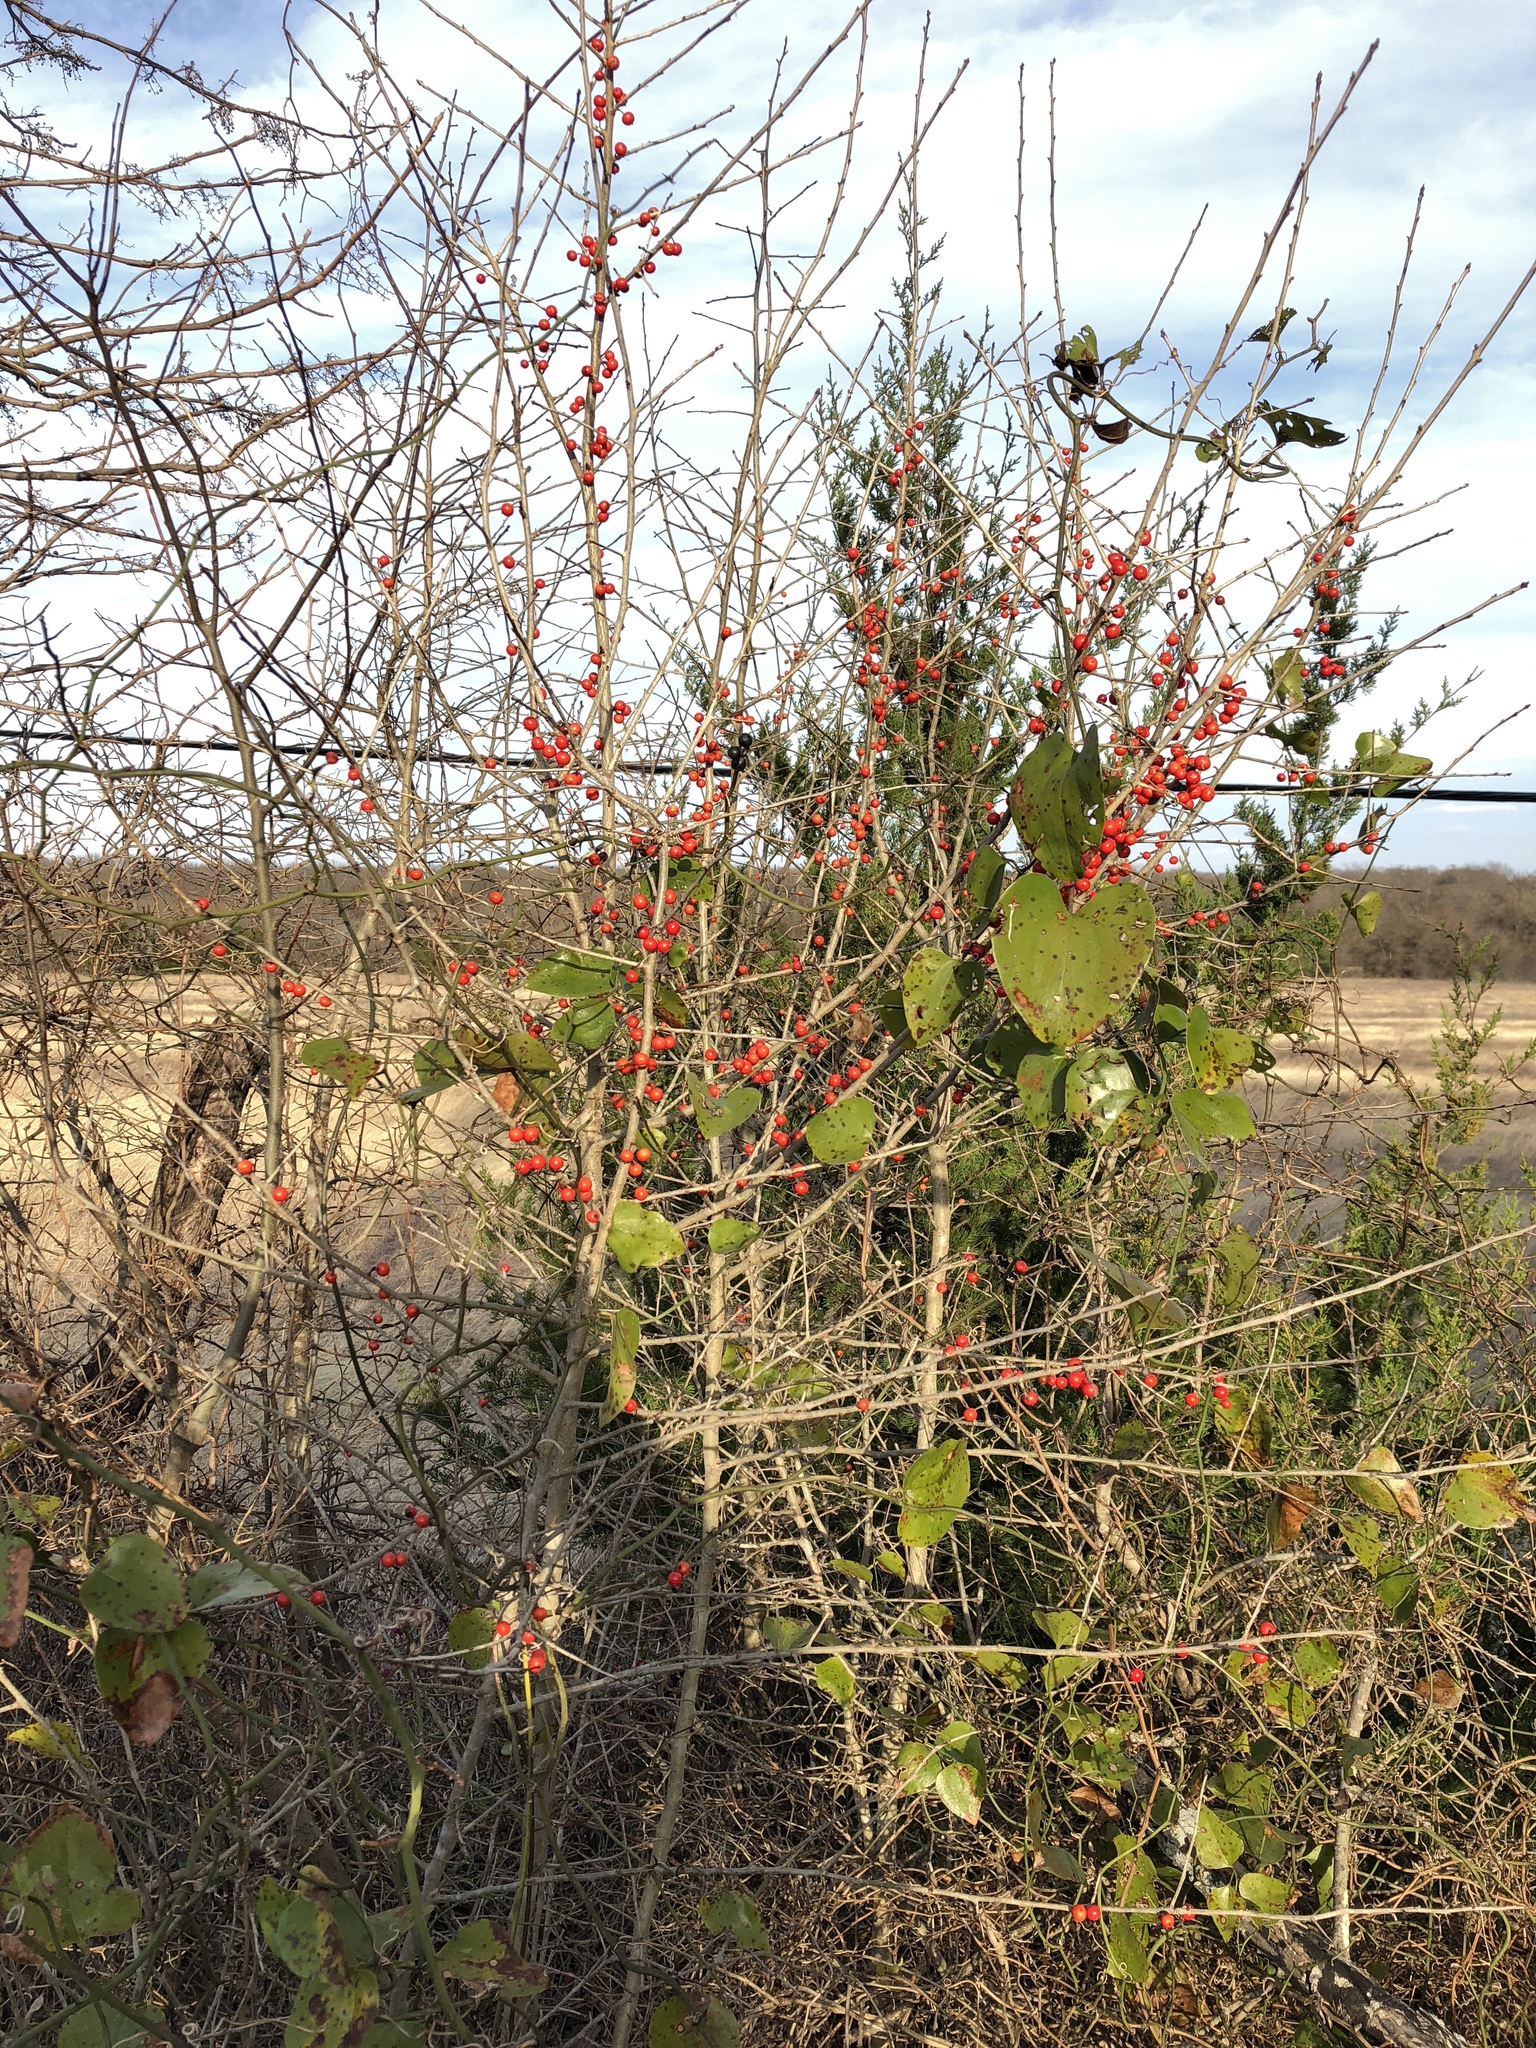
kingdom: Plantae
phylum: Tracheophyta
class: Magnoliopsida
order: Aquifoliales
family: Aquifoliaceae
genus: Ilex
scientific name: Ilex decidua
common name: Possum-haw
